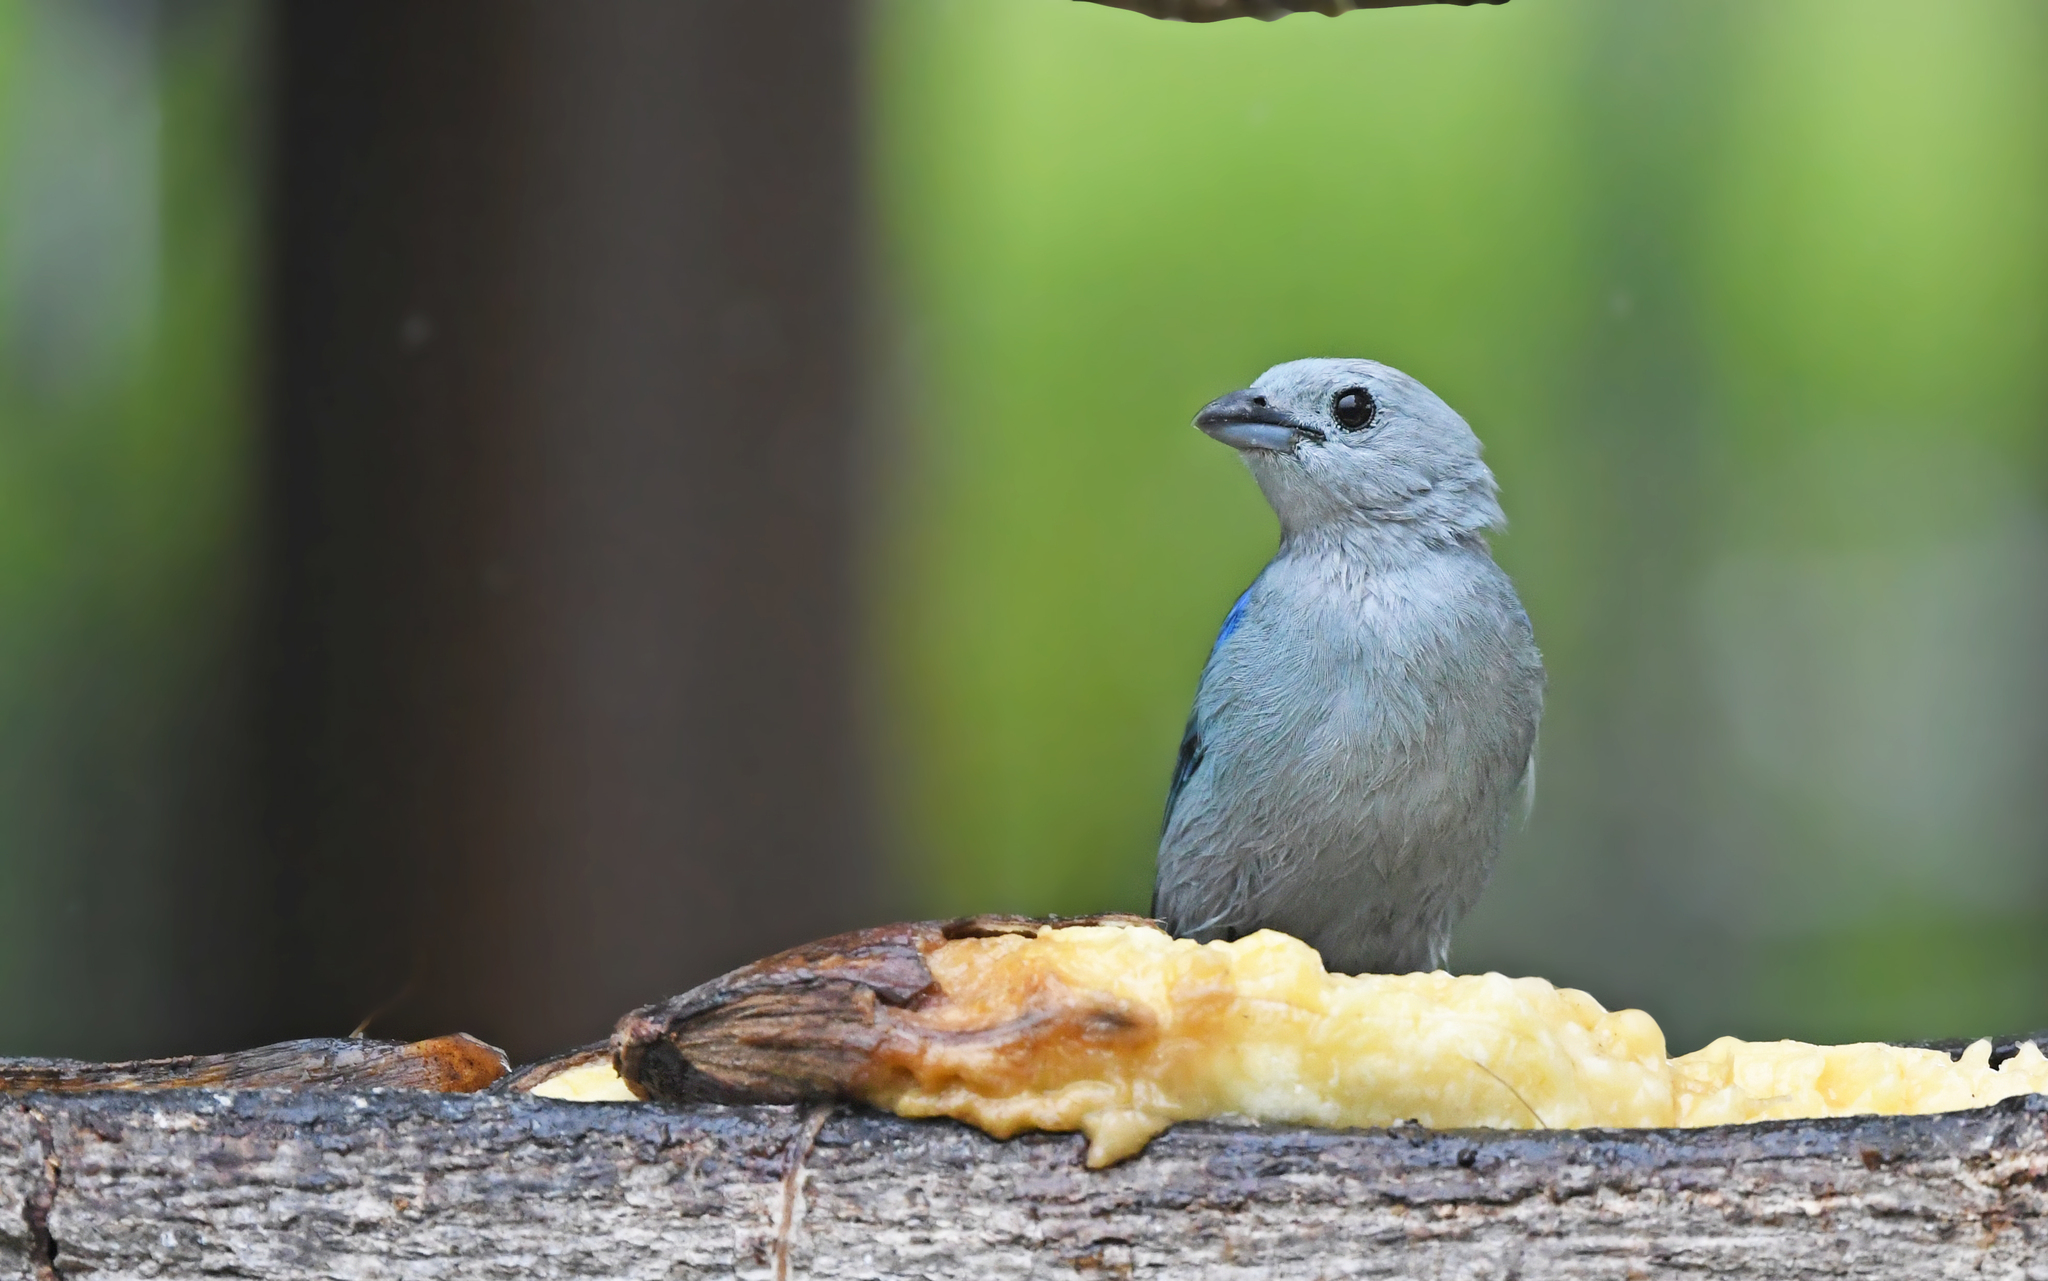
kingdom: Animalia
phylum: Chordata
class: Aves
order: Passeriformes
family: Thraupidae
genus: Thraupis
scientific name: Thraupis episcopus
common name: Blue-grey tanager
